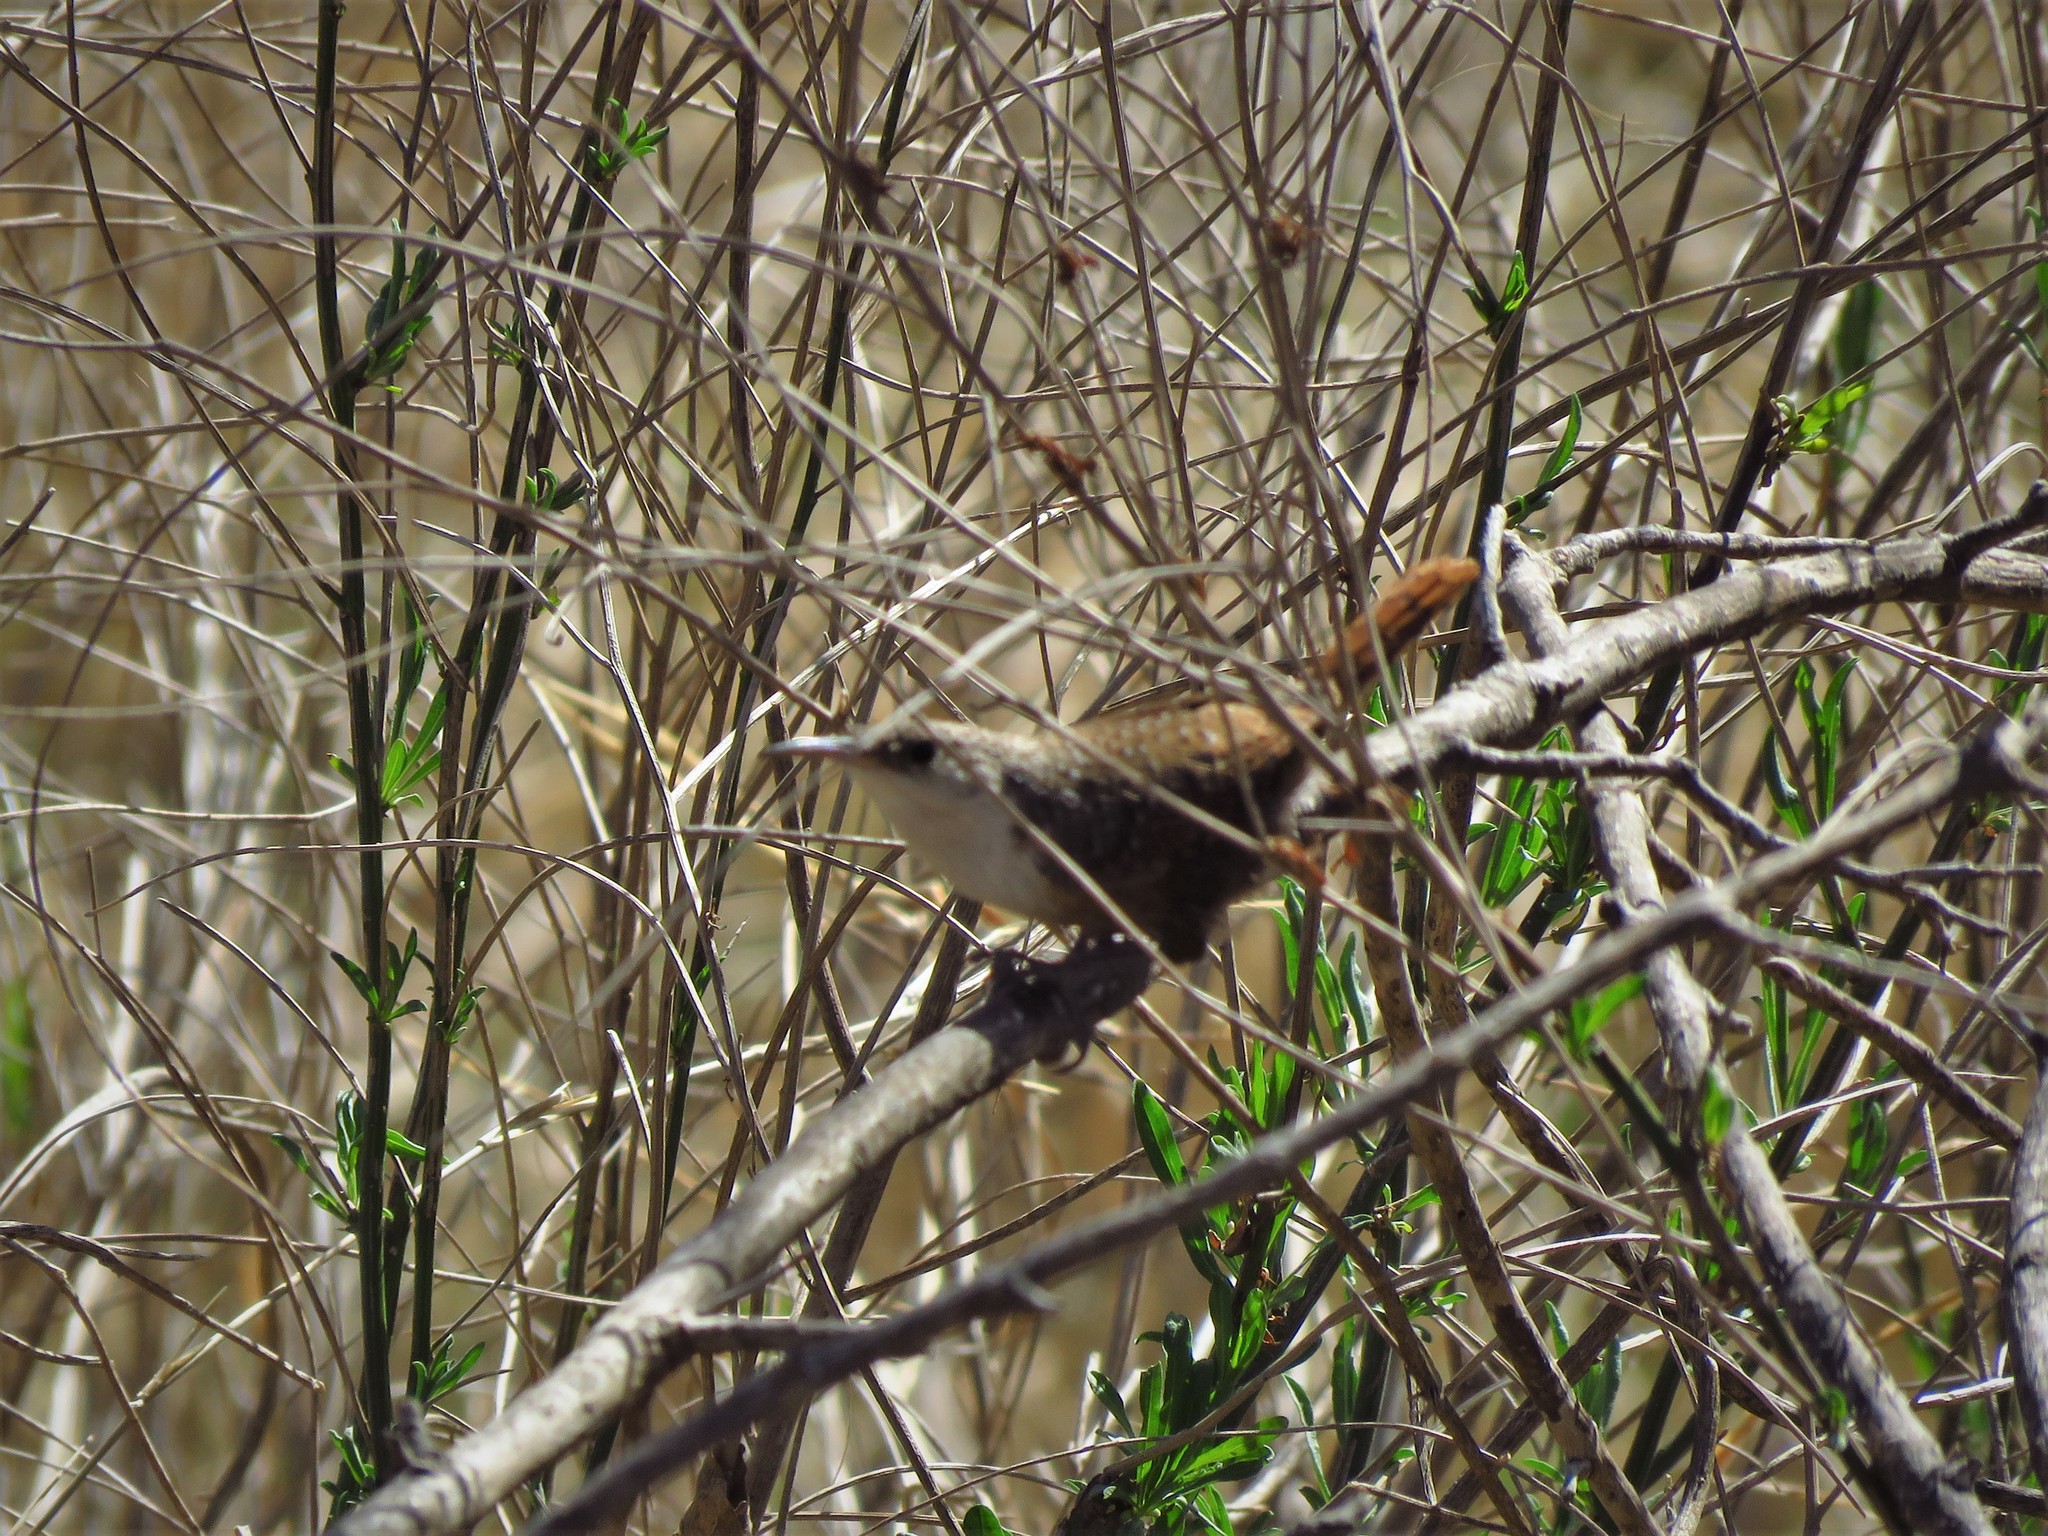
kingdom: Animalia
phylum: Chordata
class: Aves
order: Passeriformes
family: Troglodytidae
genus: Catherpes
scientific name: Catherpes mexicanus
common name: Canyon wren
